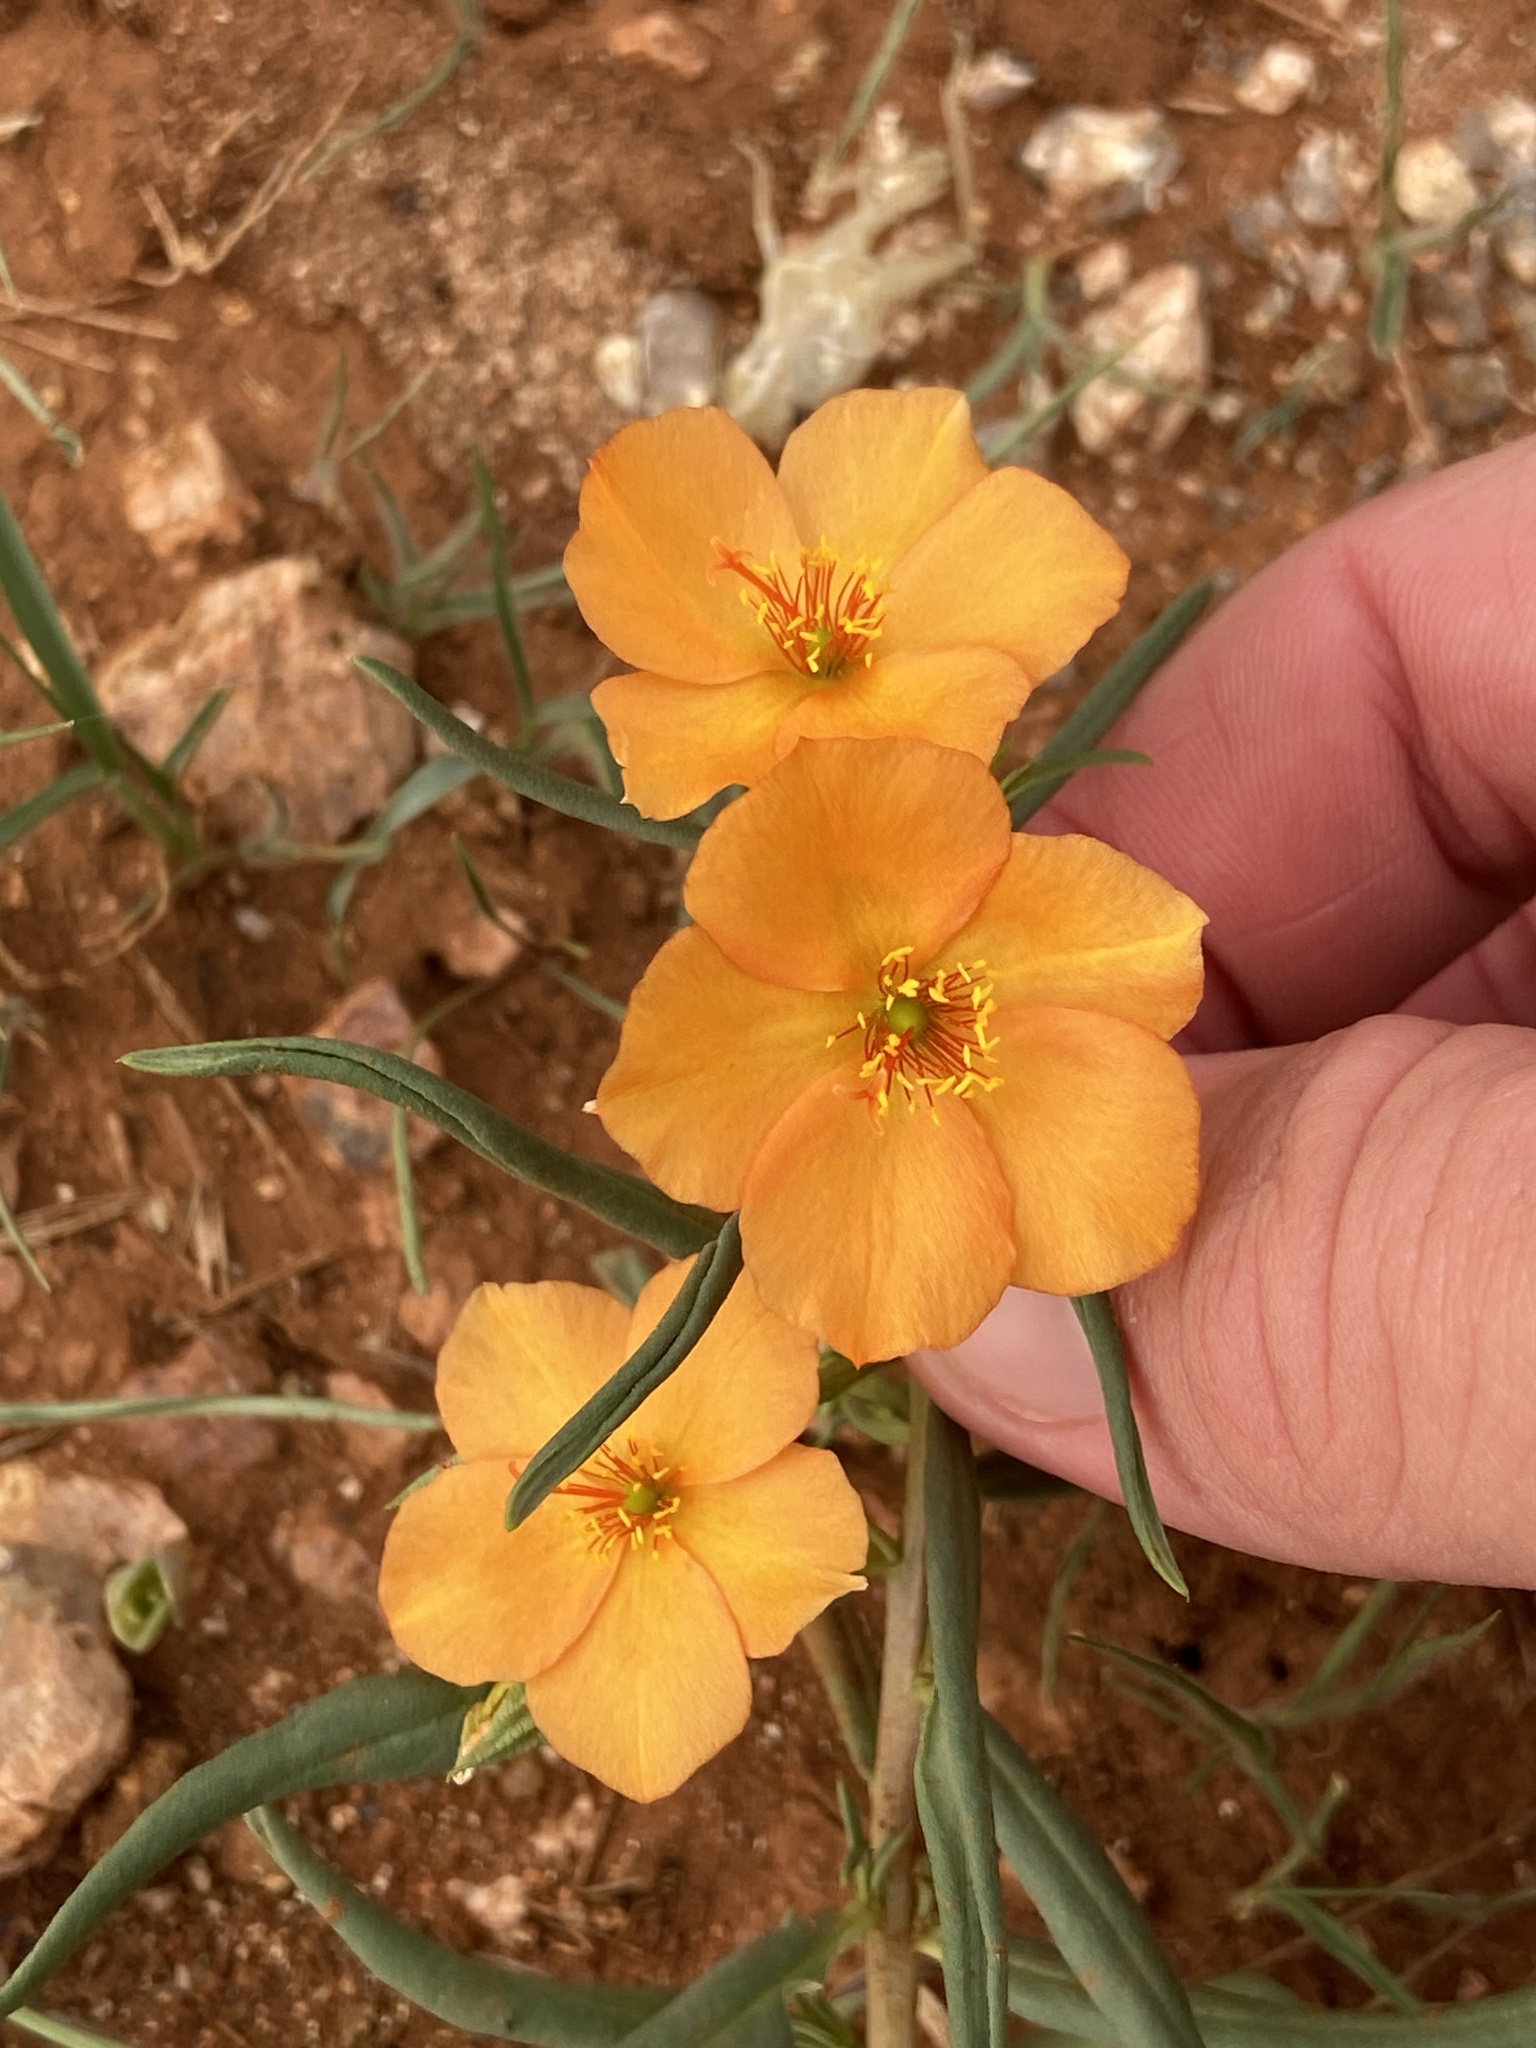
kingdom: Plantae
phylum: Tracheophyta
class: Magnoliopsida
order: Caryophyllales
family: Montiaceae
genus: Phemeranthus
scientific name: Phemeranthus aurantiacus
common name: Orange fameflower
